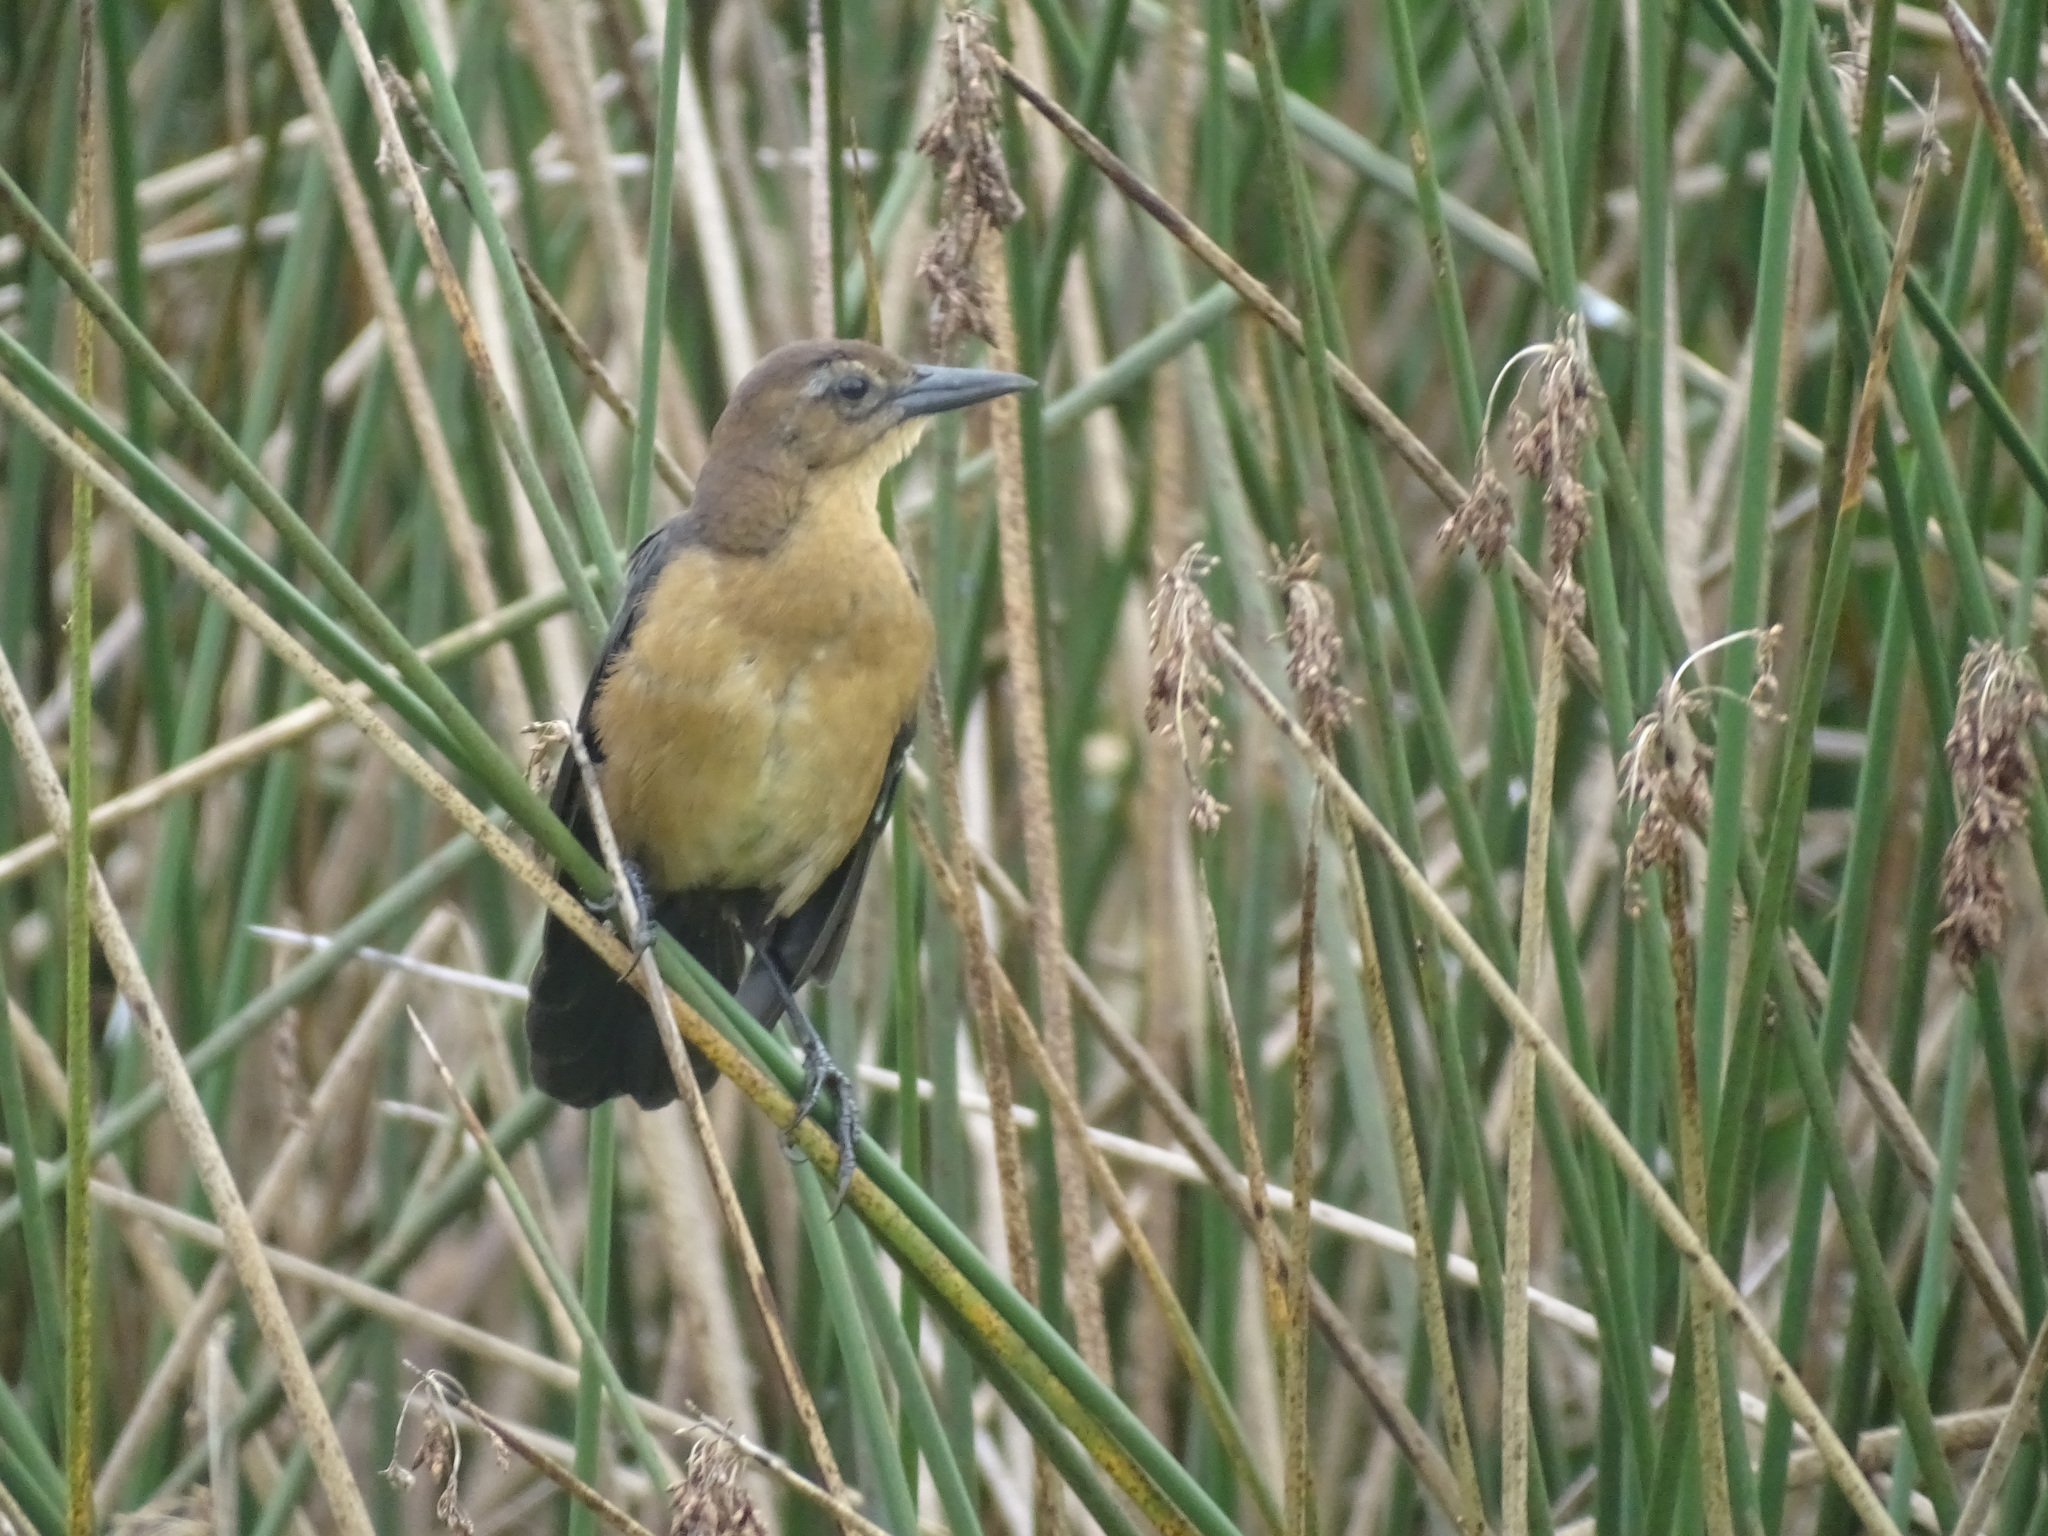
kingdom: Animalia
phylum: Chordata
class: Aves
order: Passeriformes
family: Icteridae
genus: Quiscalus
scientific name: Quiscalus major
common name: Boat-tailed grackle
